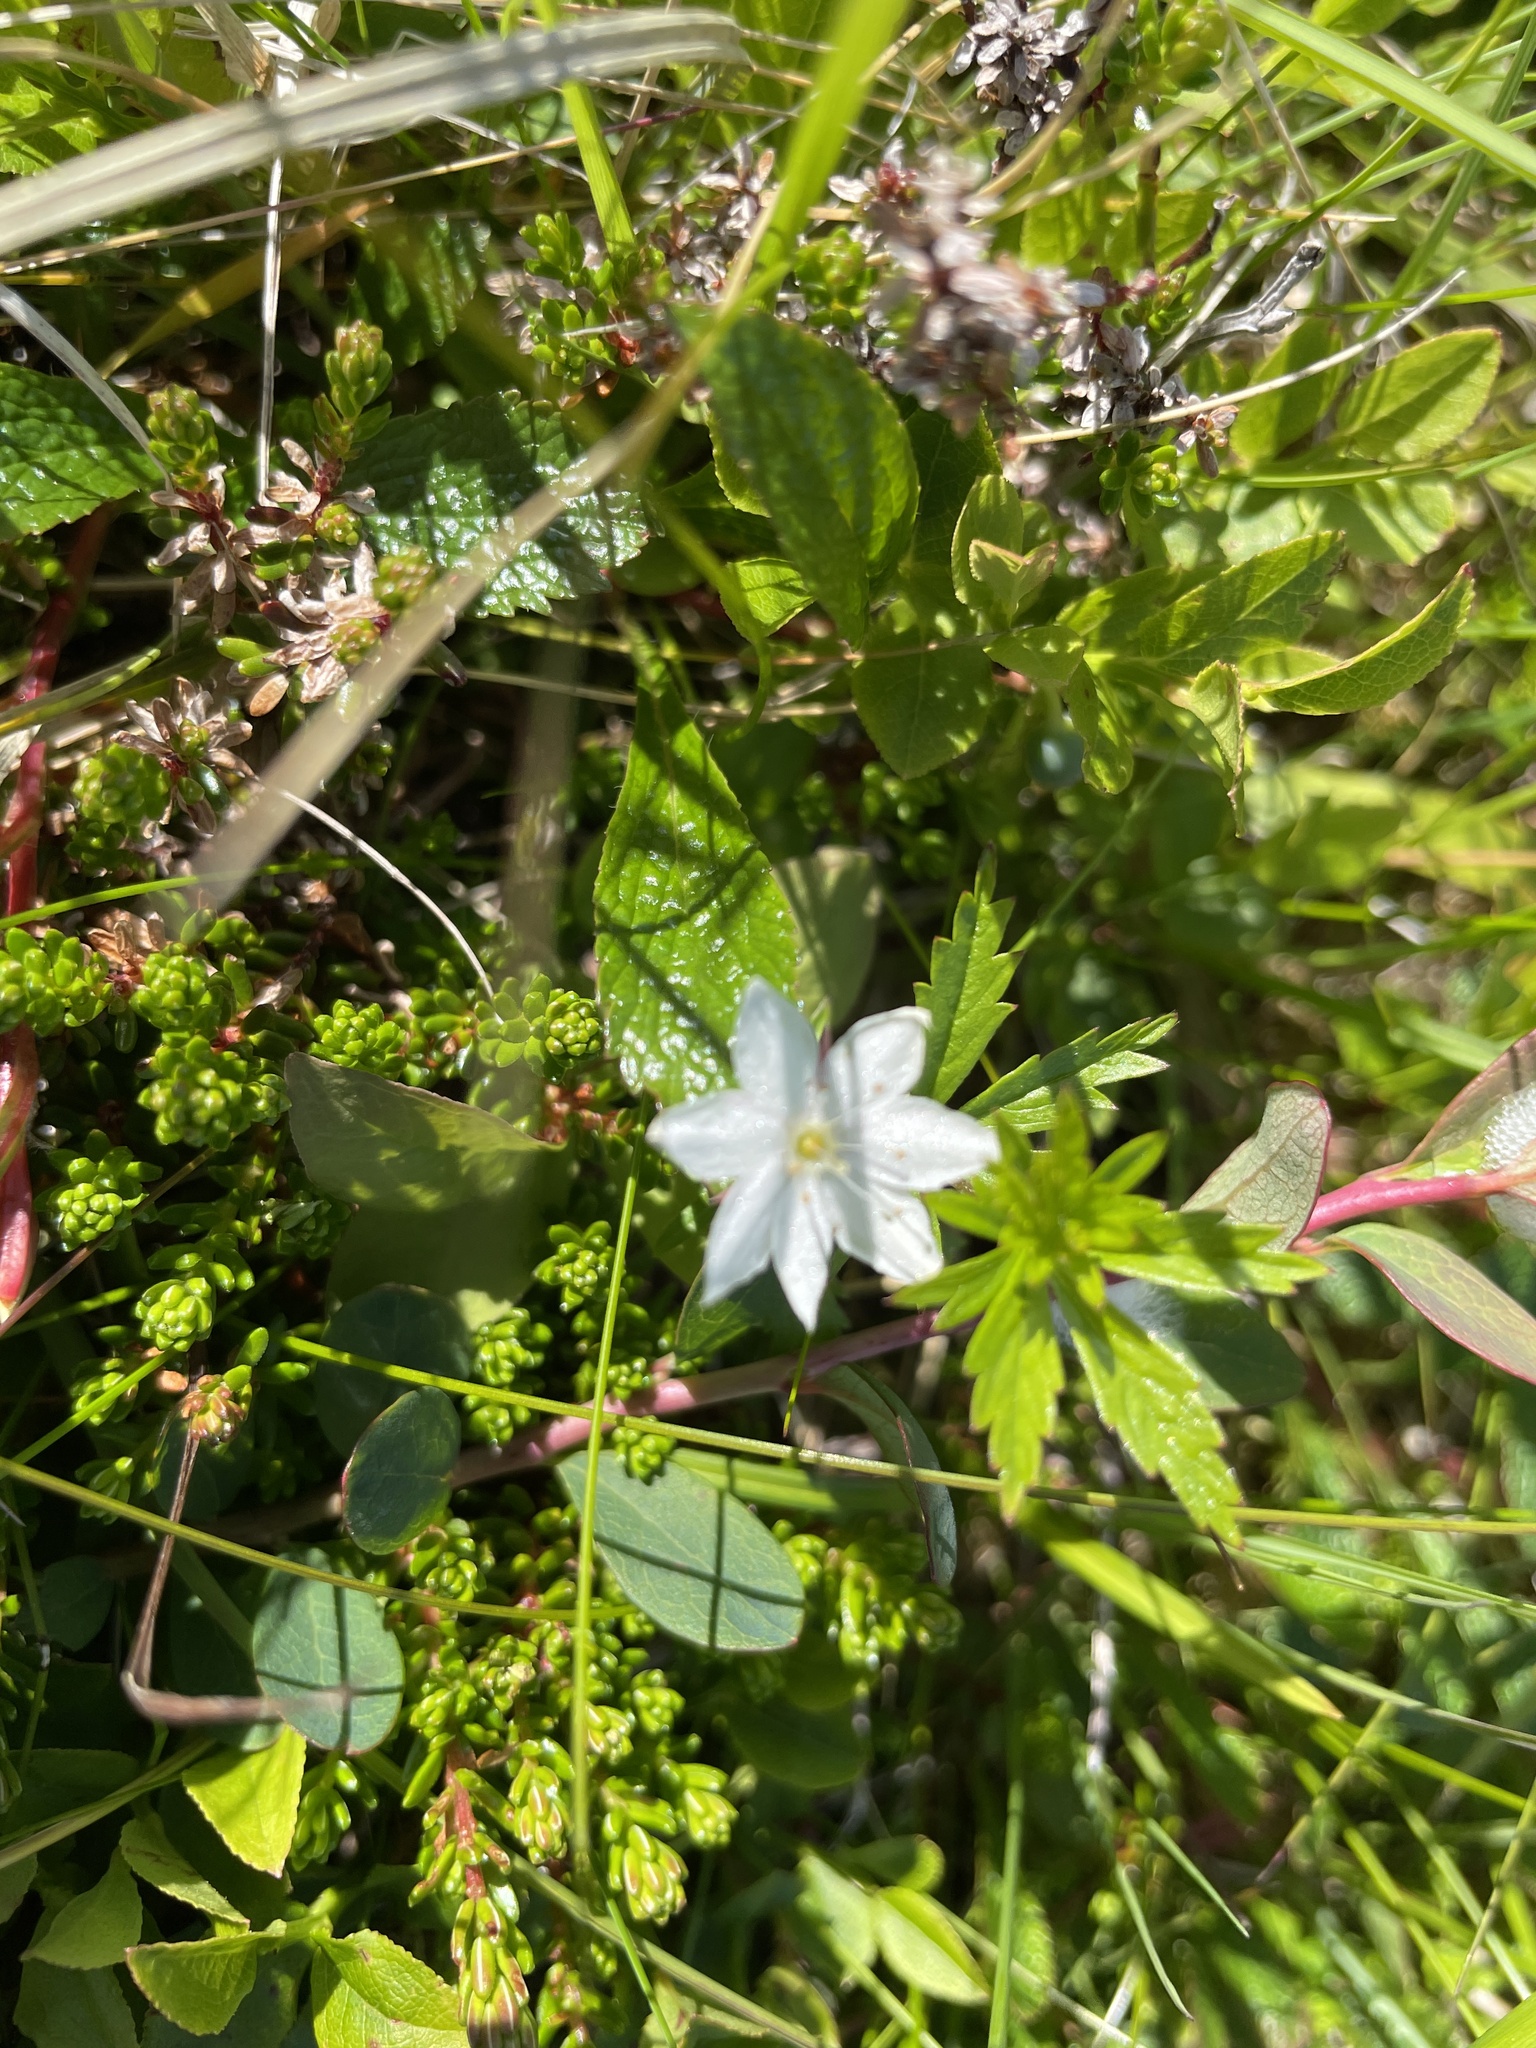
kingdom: Plantae
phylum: Tracheophyta
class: Magnoliopsida
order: Ericales
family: Primulaceae
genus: Lysimachia
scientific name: Lysimachia europaea
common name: Arctic starflower
